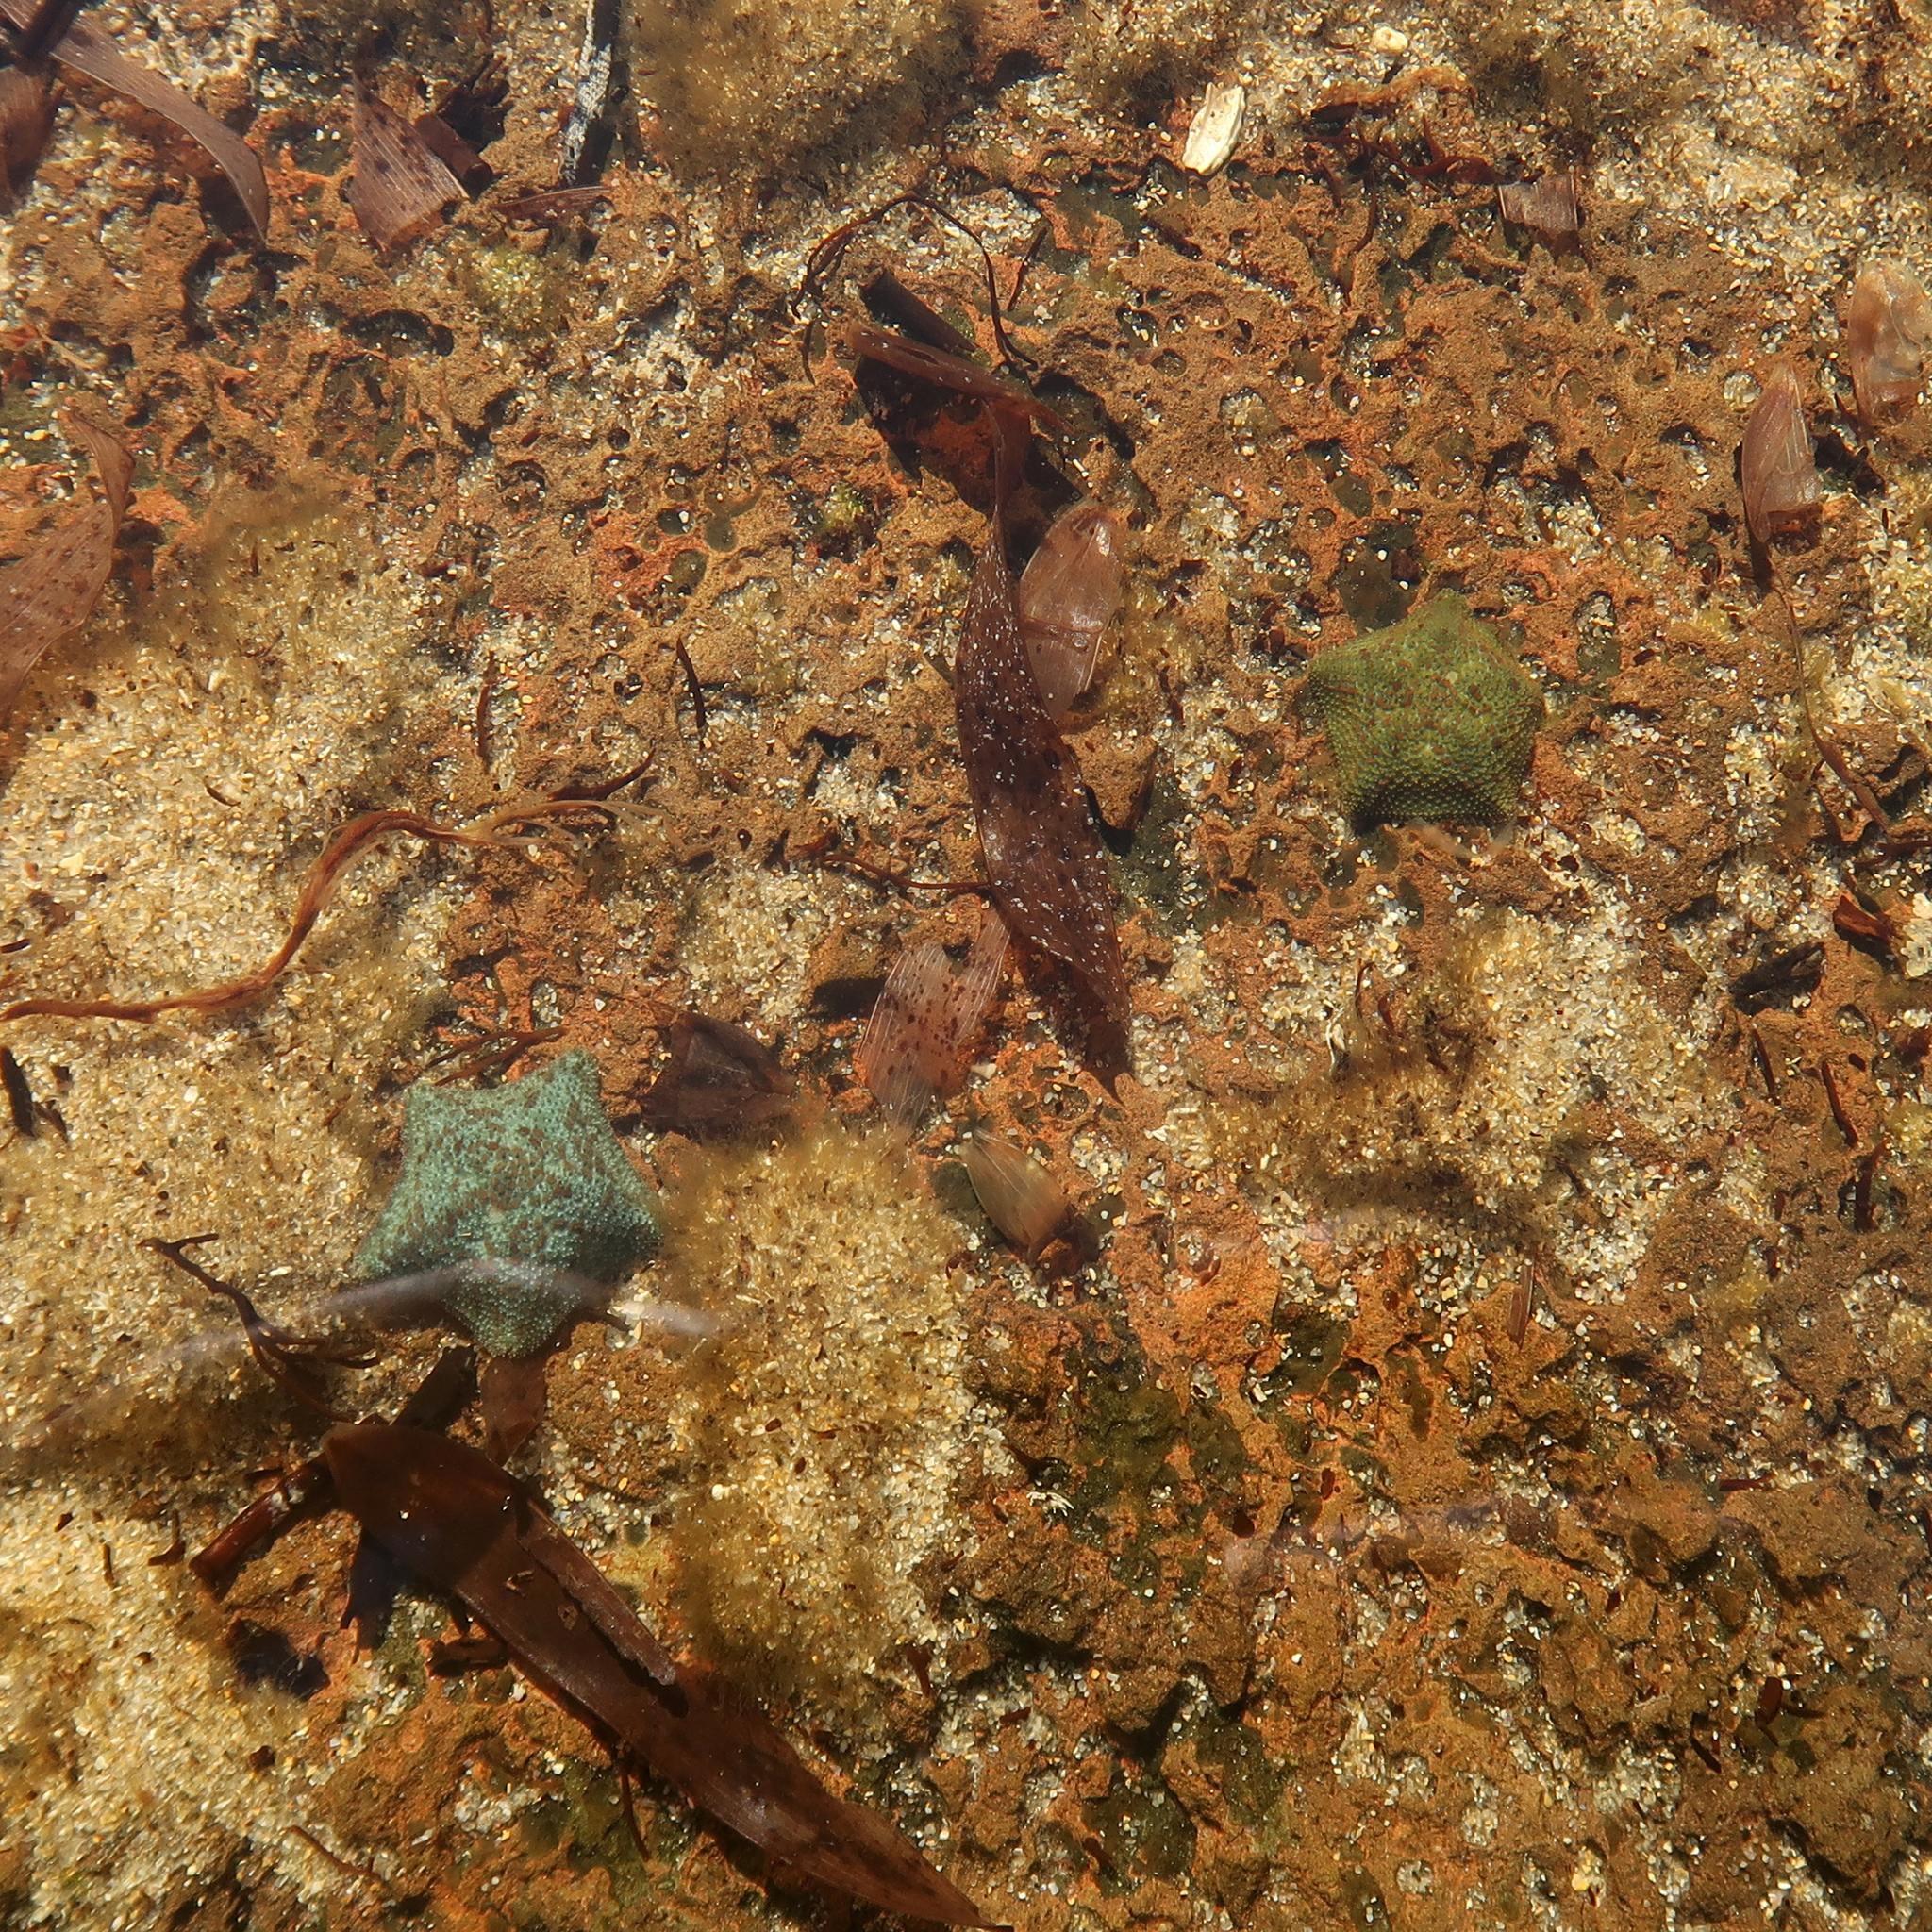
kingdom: Animalia
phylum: Echinodermata
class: Asteroidea
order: Valvatida
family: Asterinidae
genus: Parvulastra
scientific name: Parvulastra exigua
